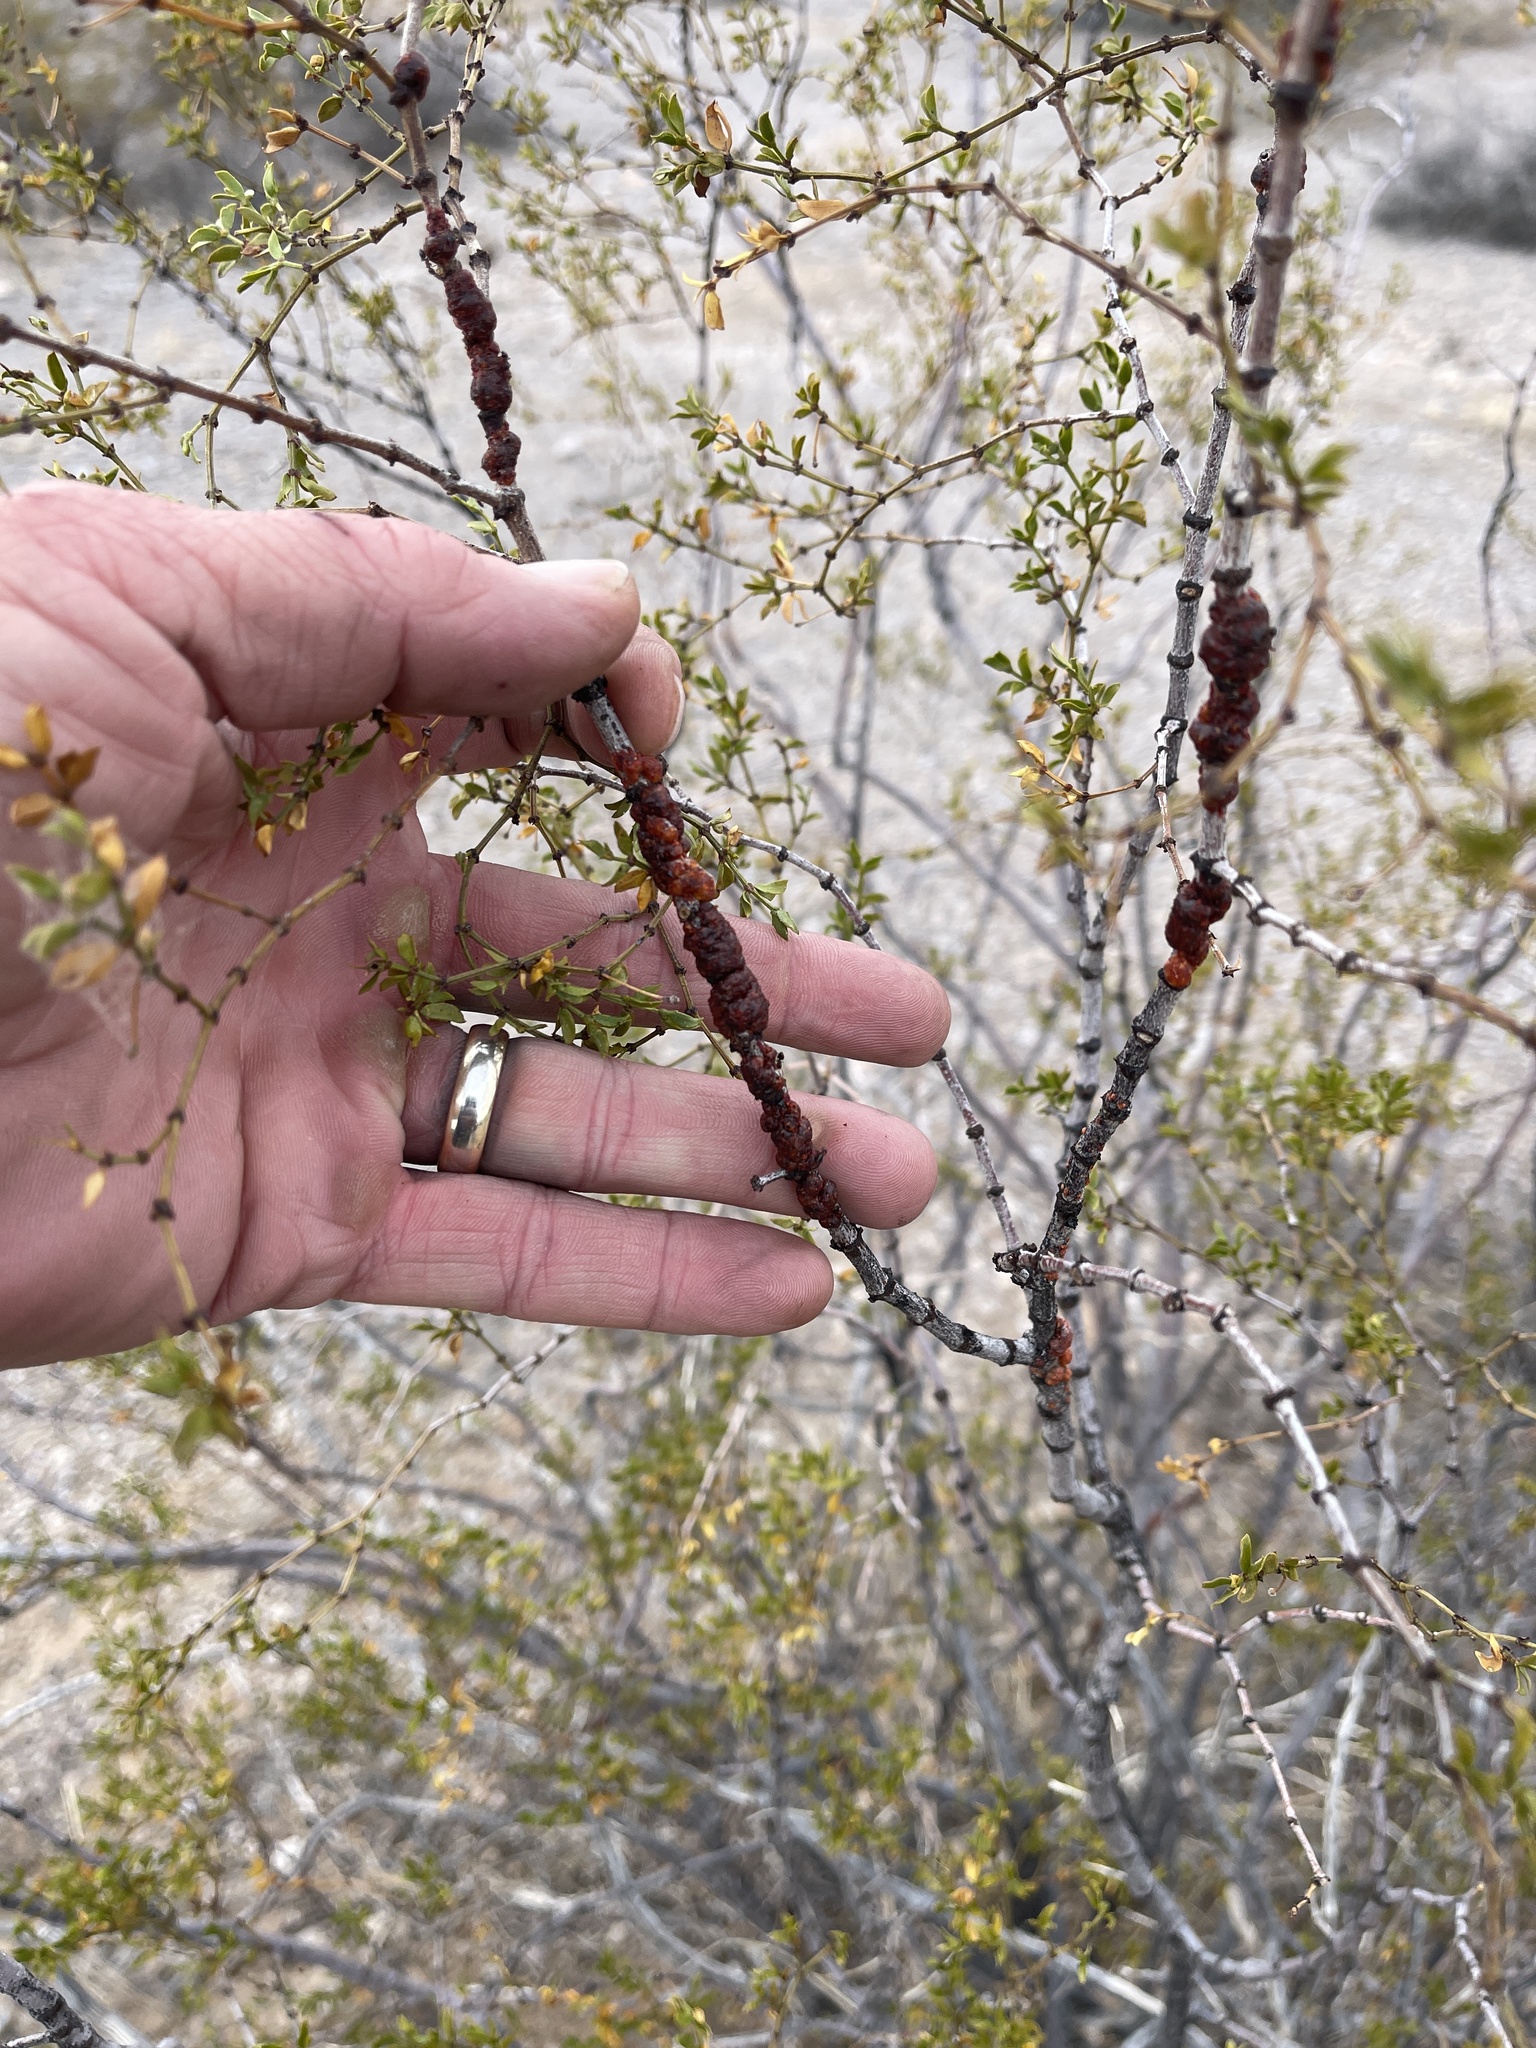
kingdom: Animalia
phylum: Arthropoda
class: Insecta
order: Hemiptera
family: Kerriidae
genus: Tachardiella
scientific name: Tachardiella larreae
